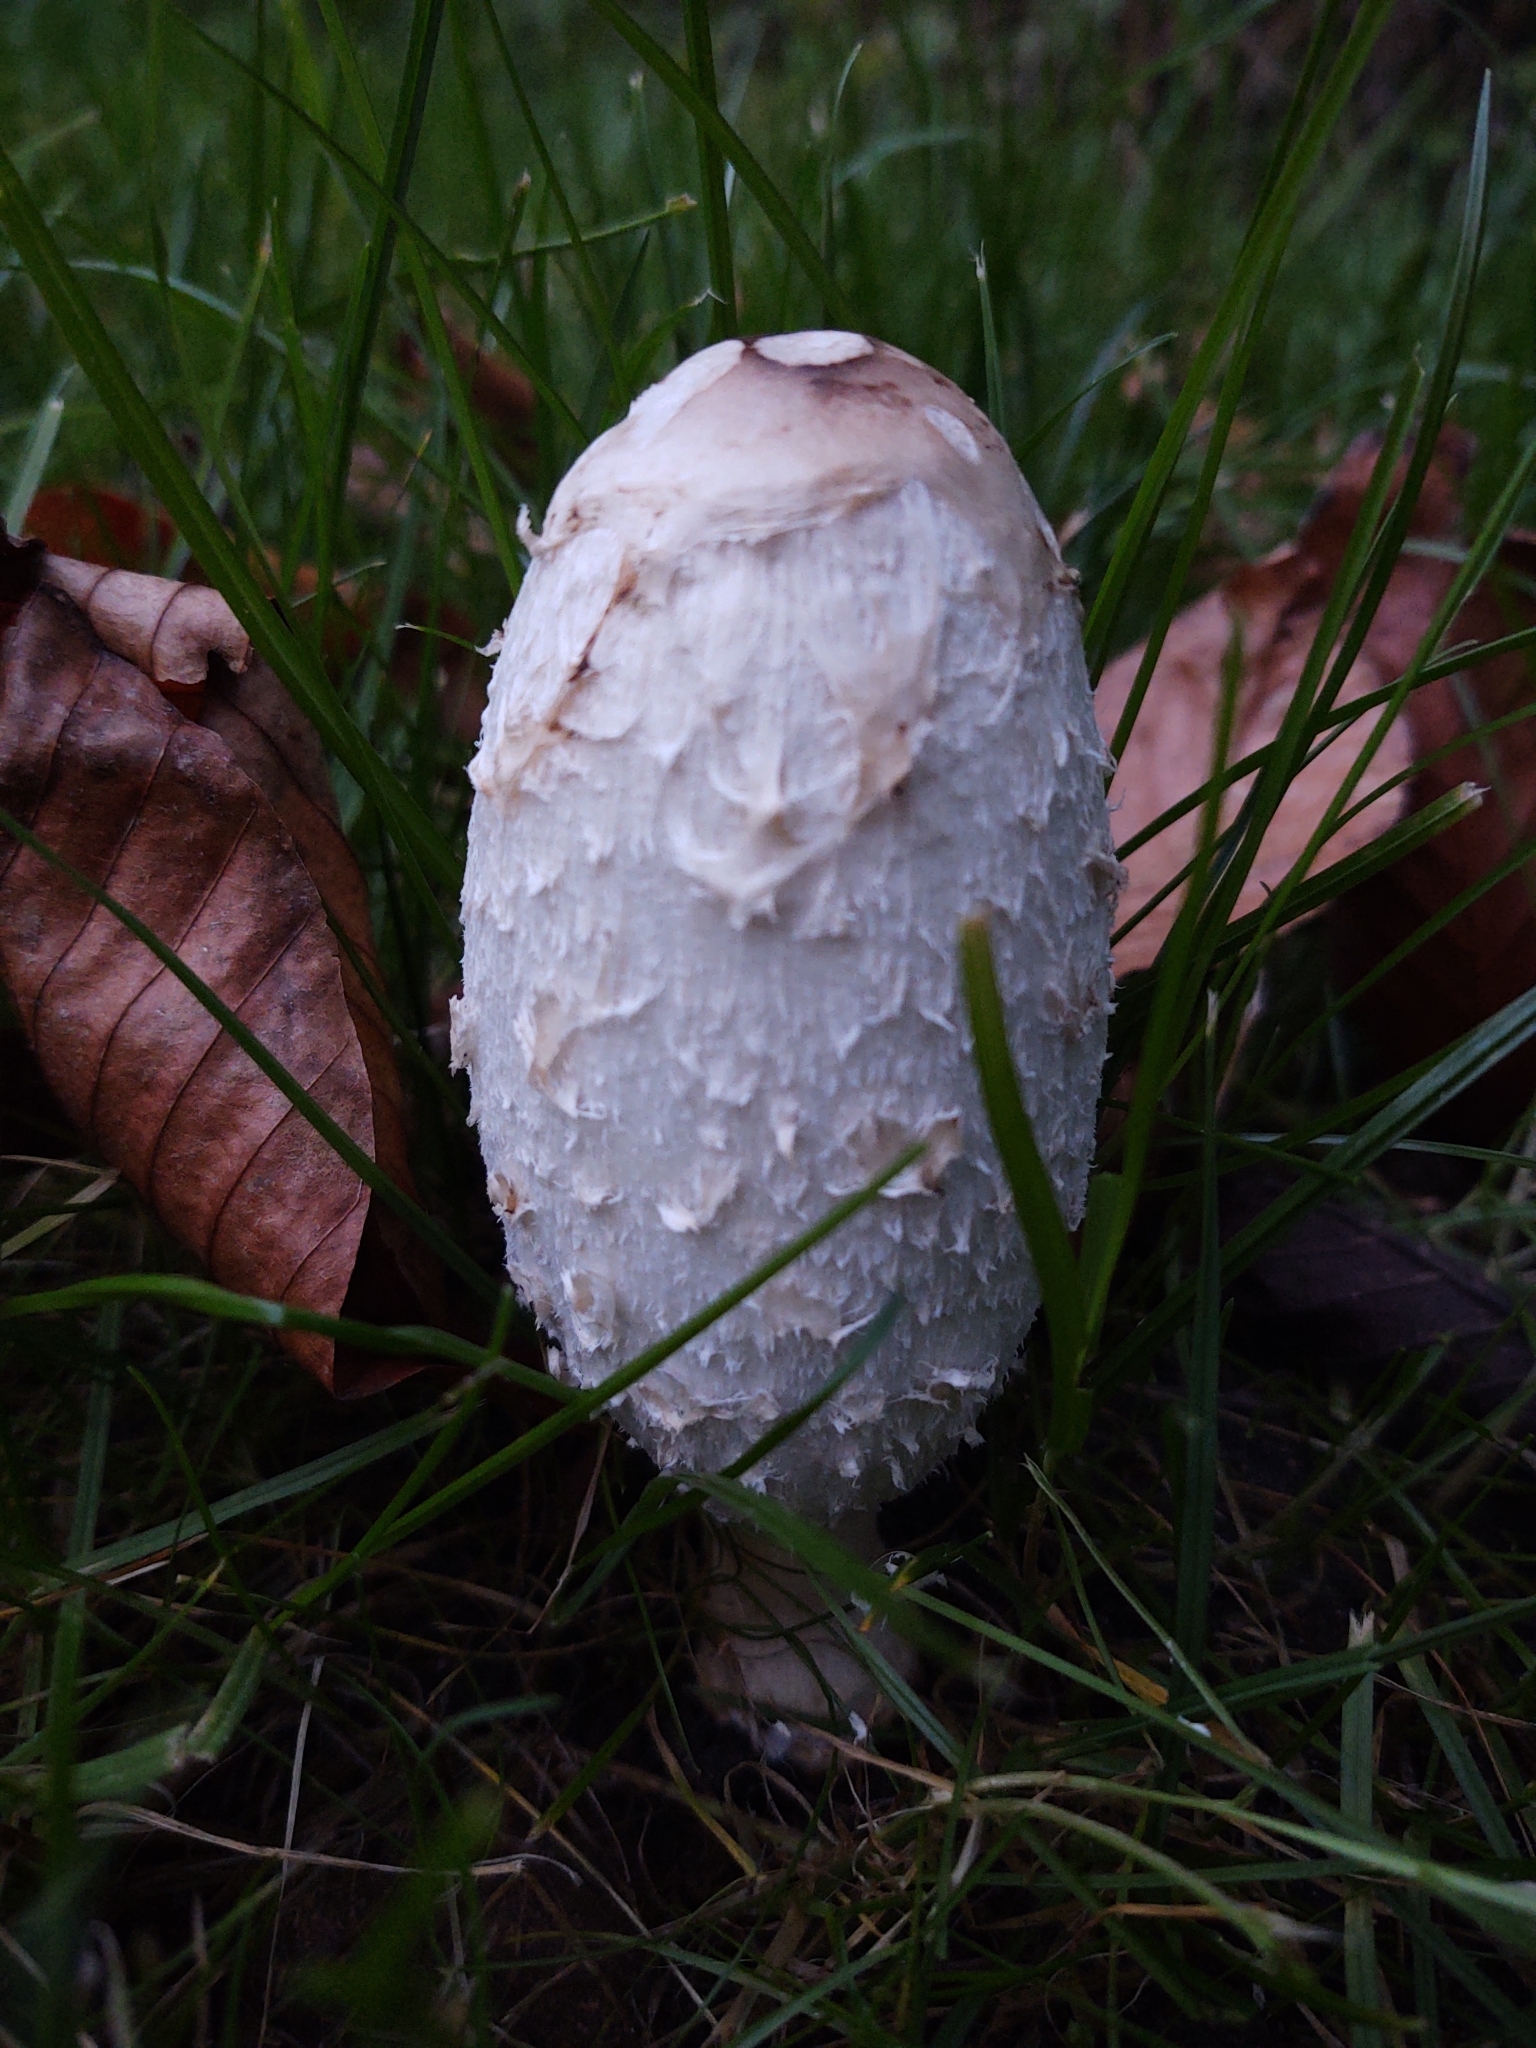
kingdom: Fungi
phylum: Basidiomycota
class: Agaricomycetes
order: Agaricales
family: Agaricaceae
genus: Coprinus
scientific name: Coprinus comatus
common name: Lawyer's wig
